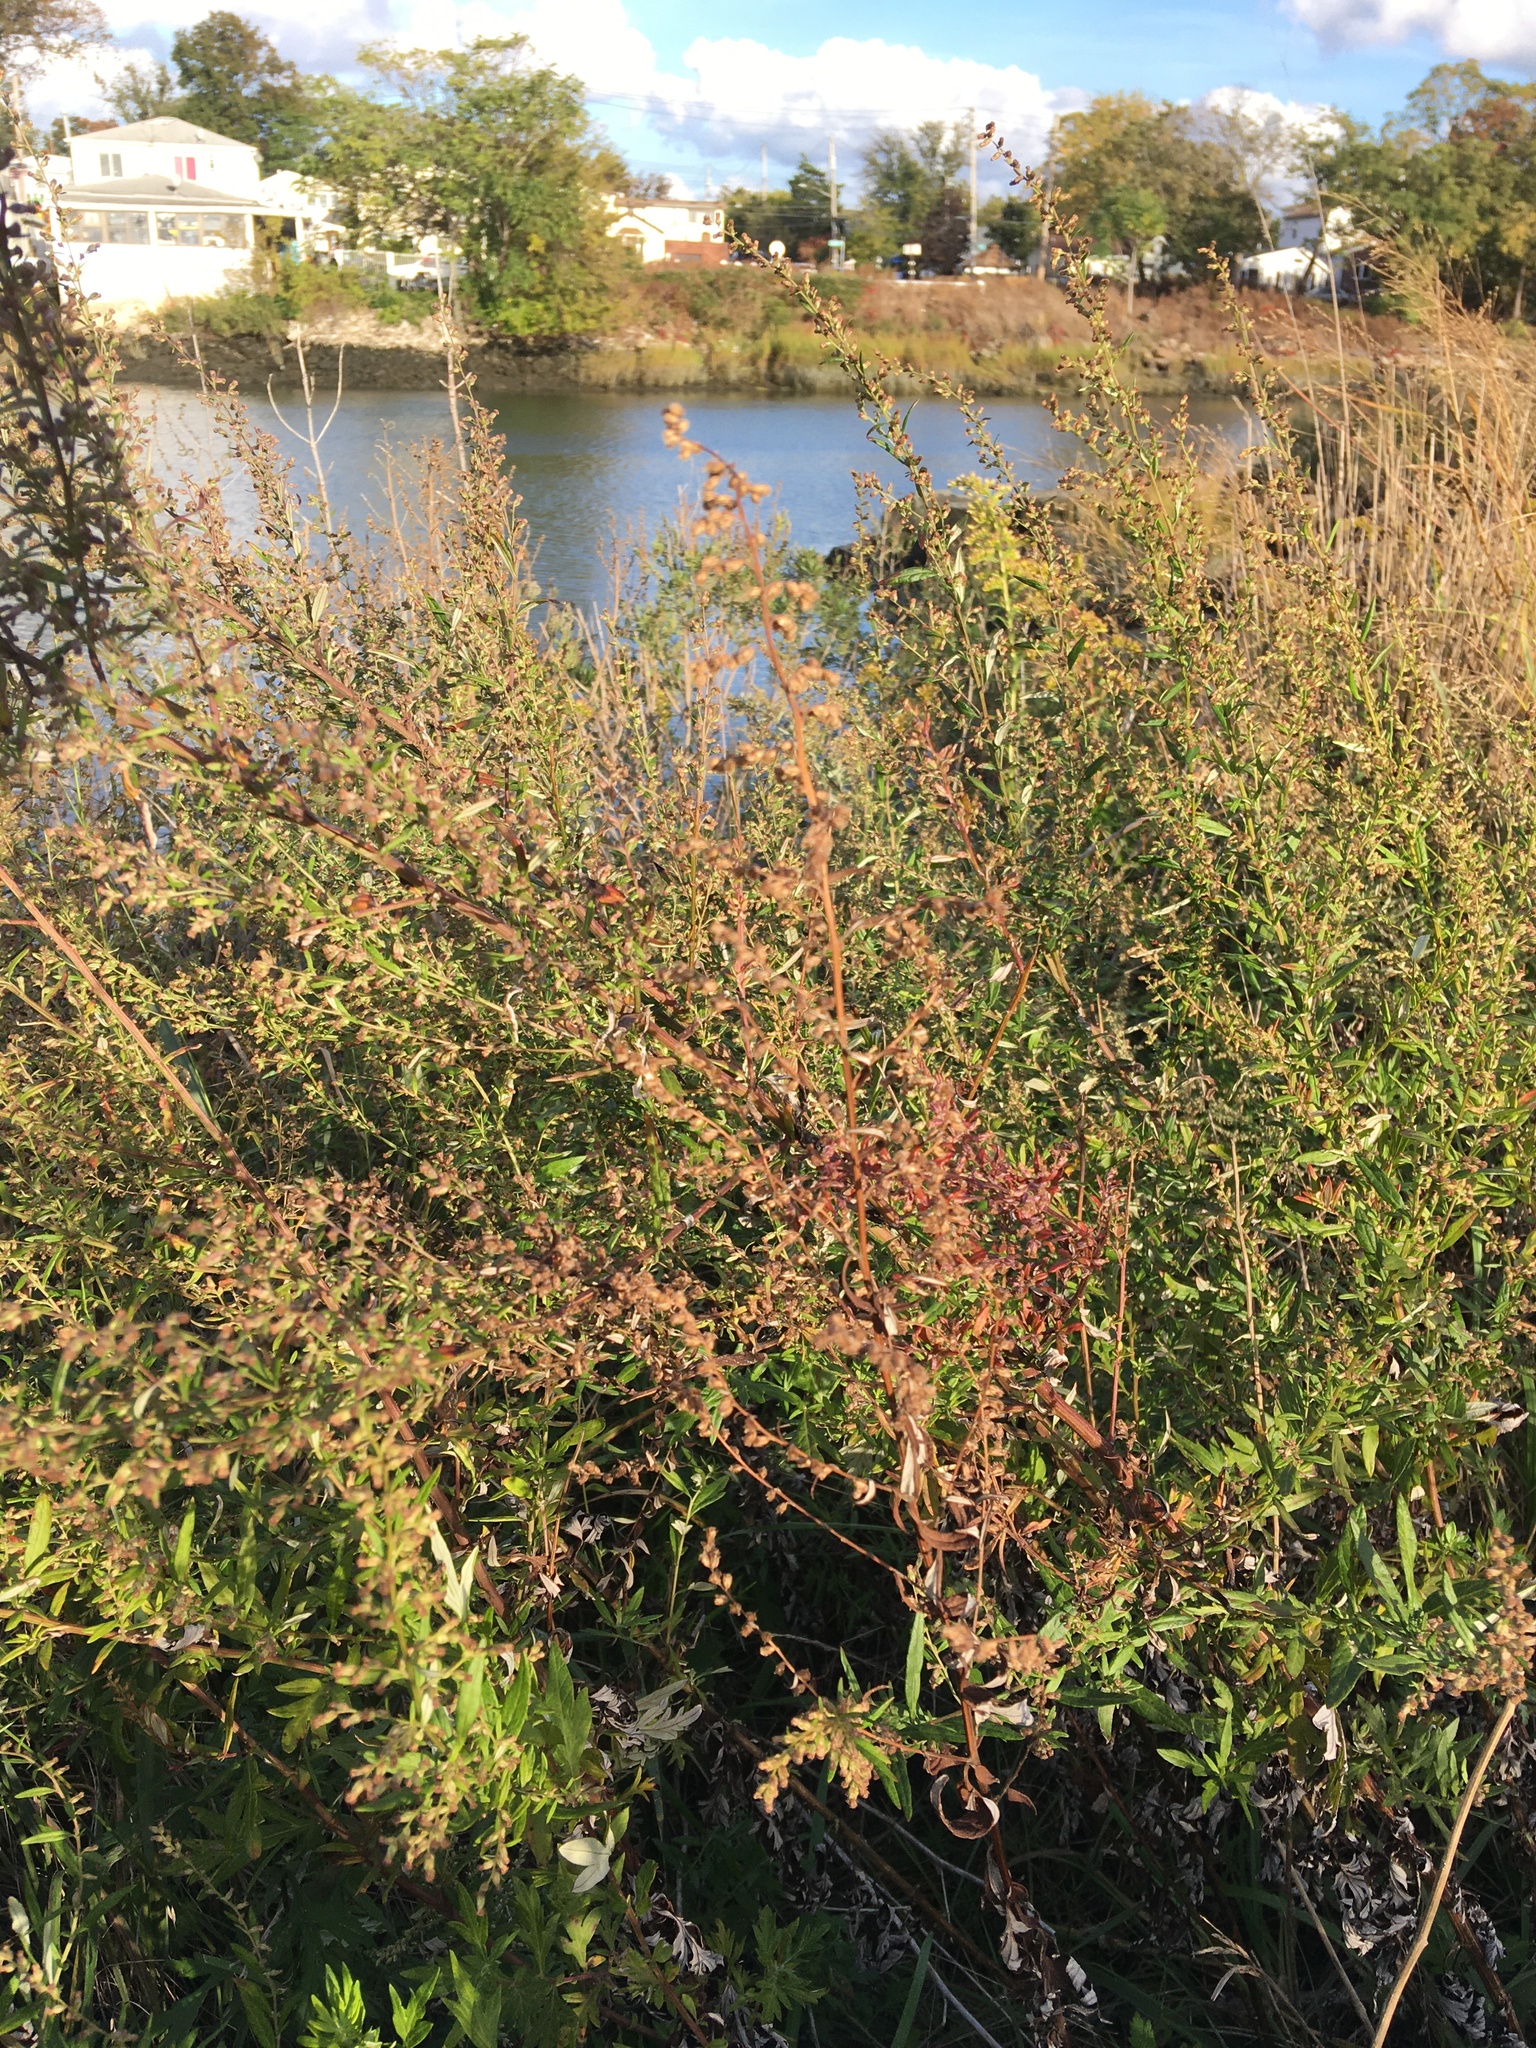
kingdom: Plantae
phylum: Tracheophyta
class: Magnoliopsida
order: Asterales
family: Asteraceae
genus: Artemisia
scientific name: Artemisia vulgaris
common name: Mugwort
